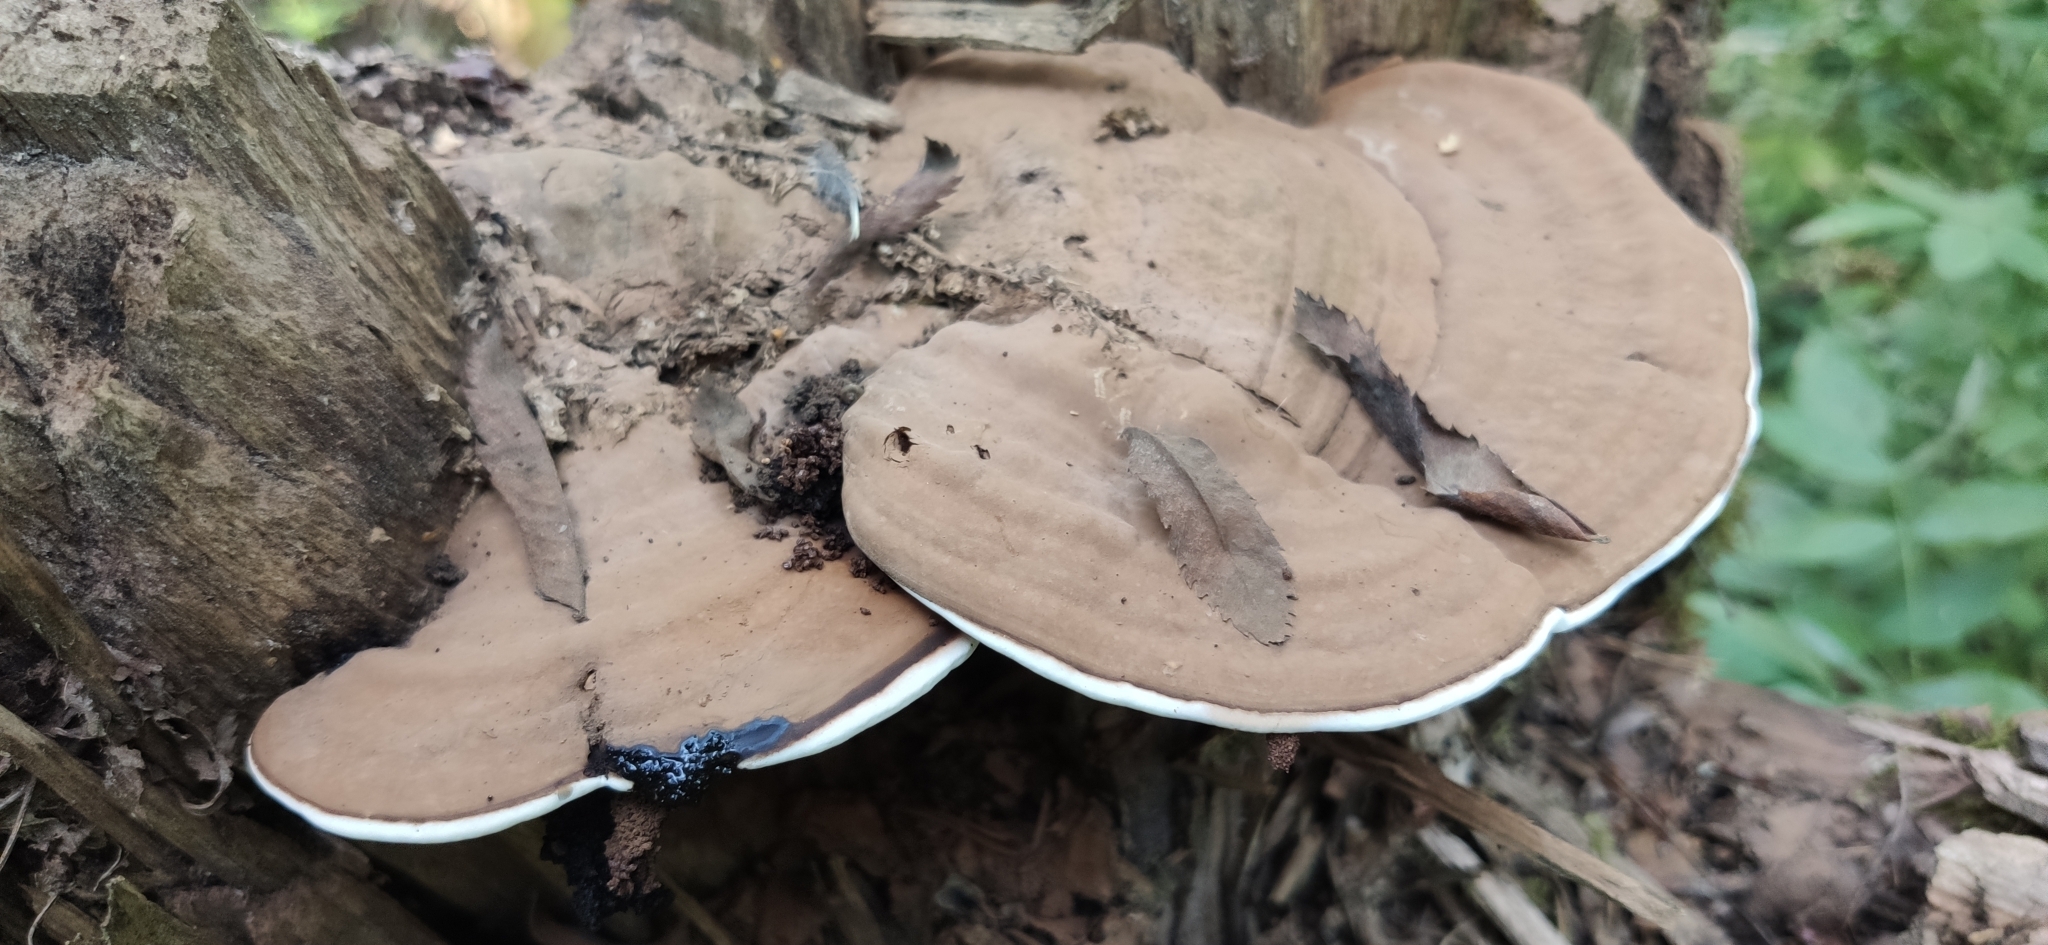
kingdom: Fungi
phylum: Basidiomycota
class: Agaricomycetes
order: Polyporales
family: Polyporaceae
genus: Ganoderma
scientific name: Ganoderma applanatum
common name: Artist's bracket
